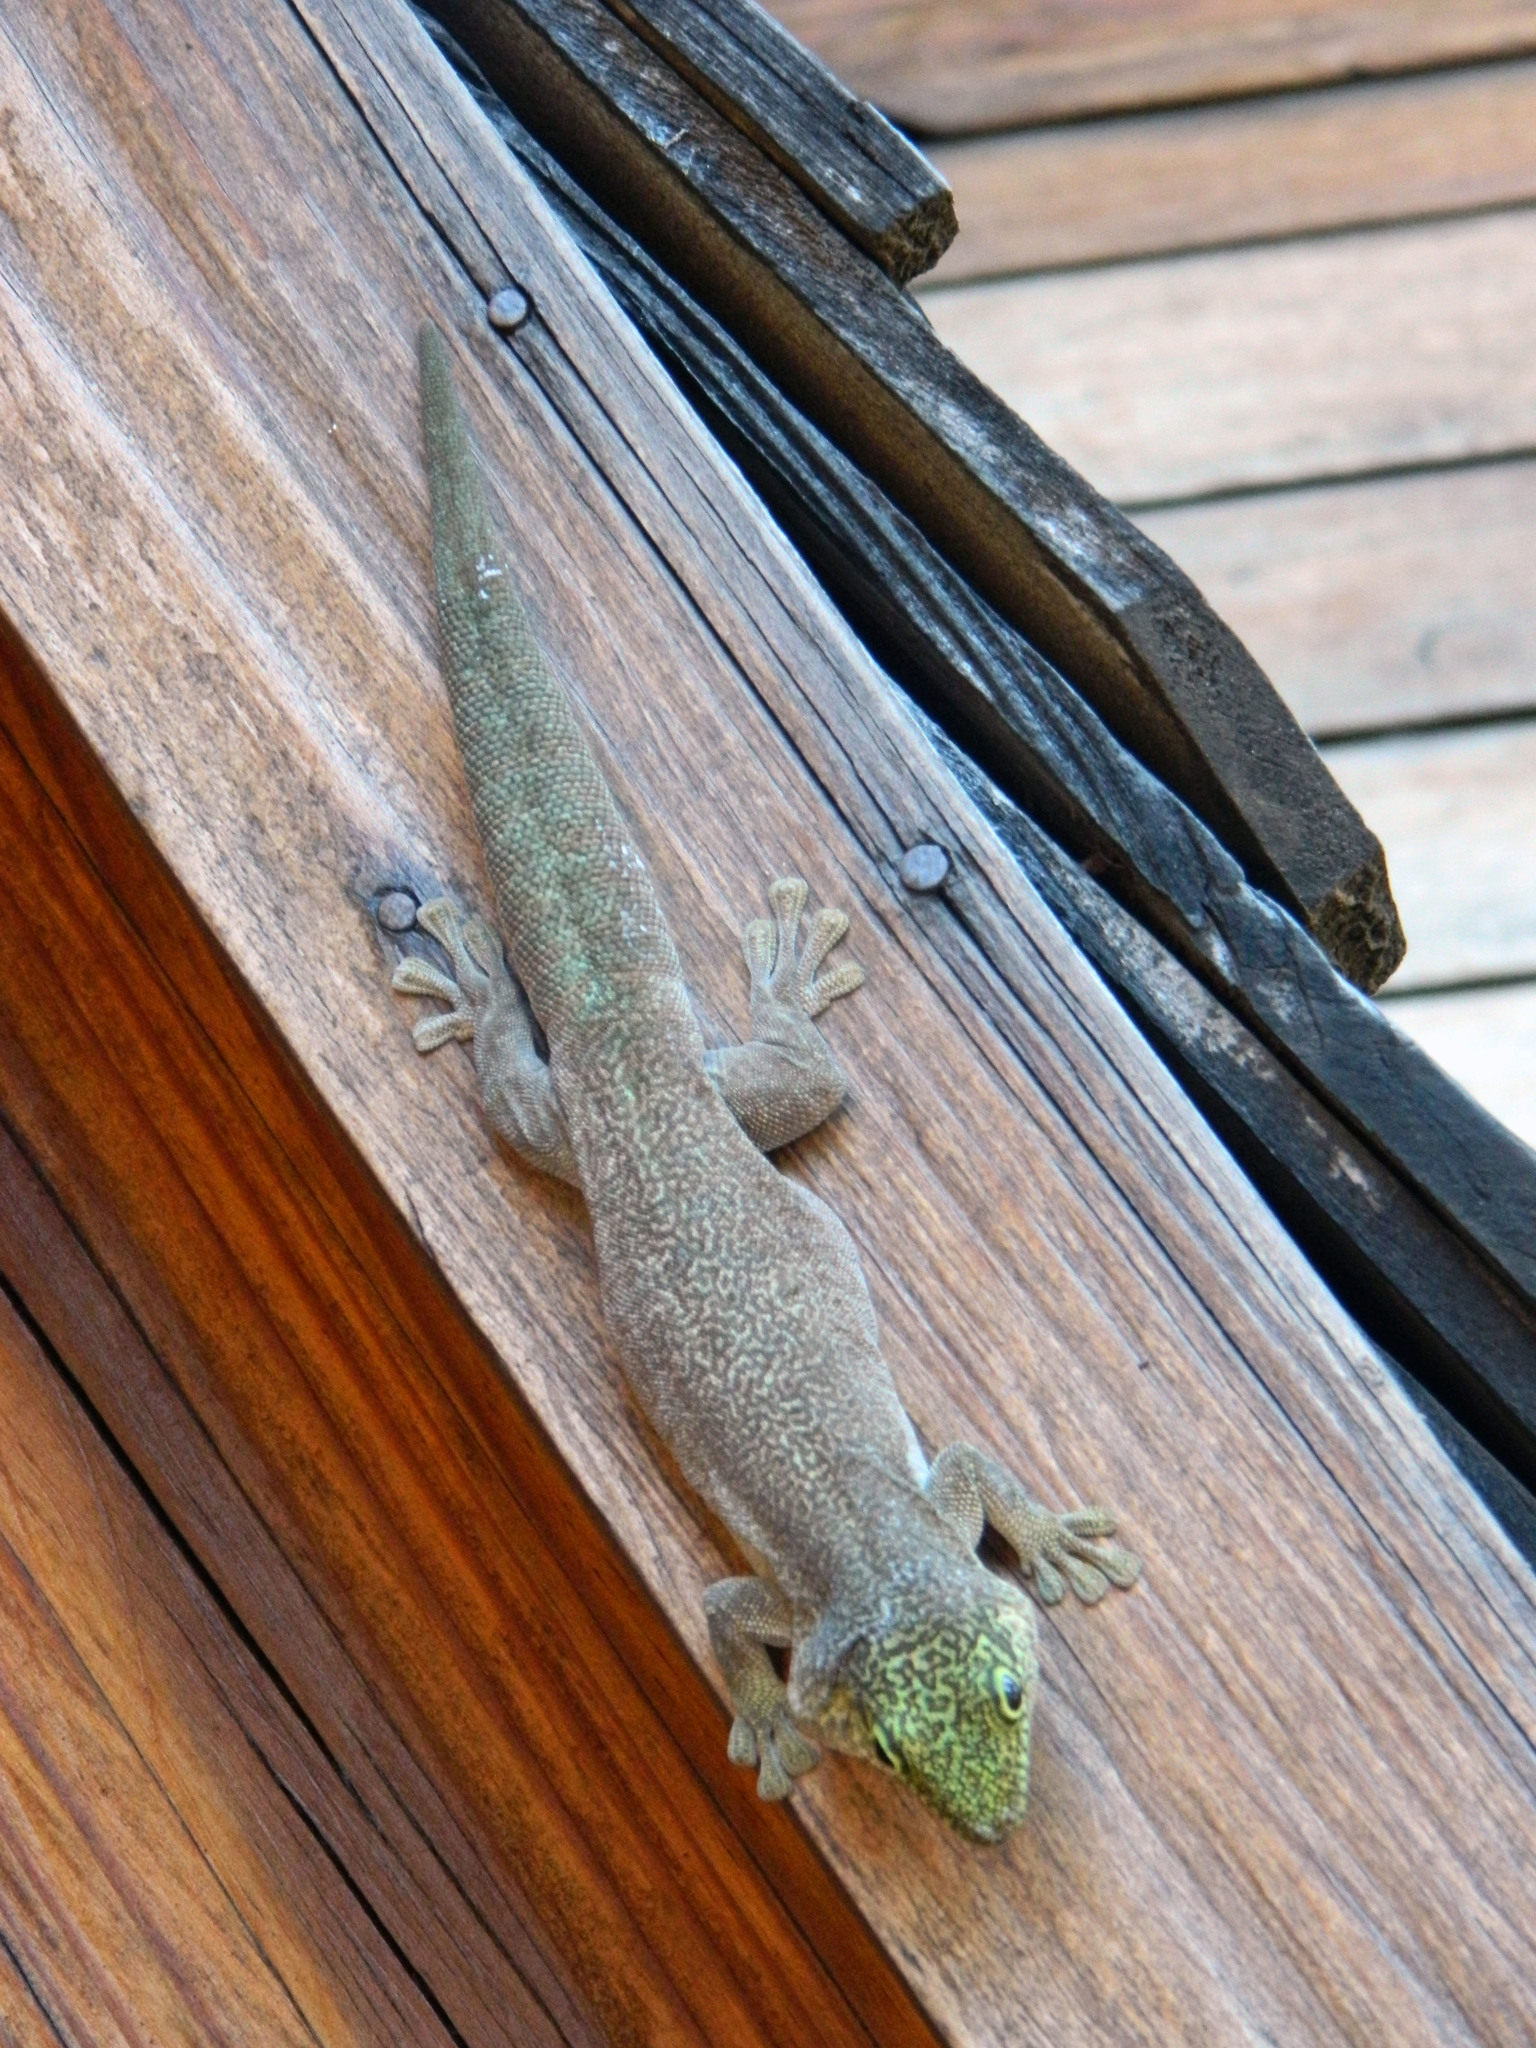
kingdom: Animalia
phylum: Chordata
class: Squamata
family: Gekkonidae
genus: Phelsuma
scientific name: Phelsuma standingi
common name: Standing's day gecko
